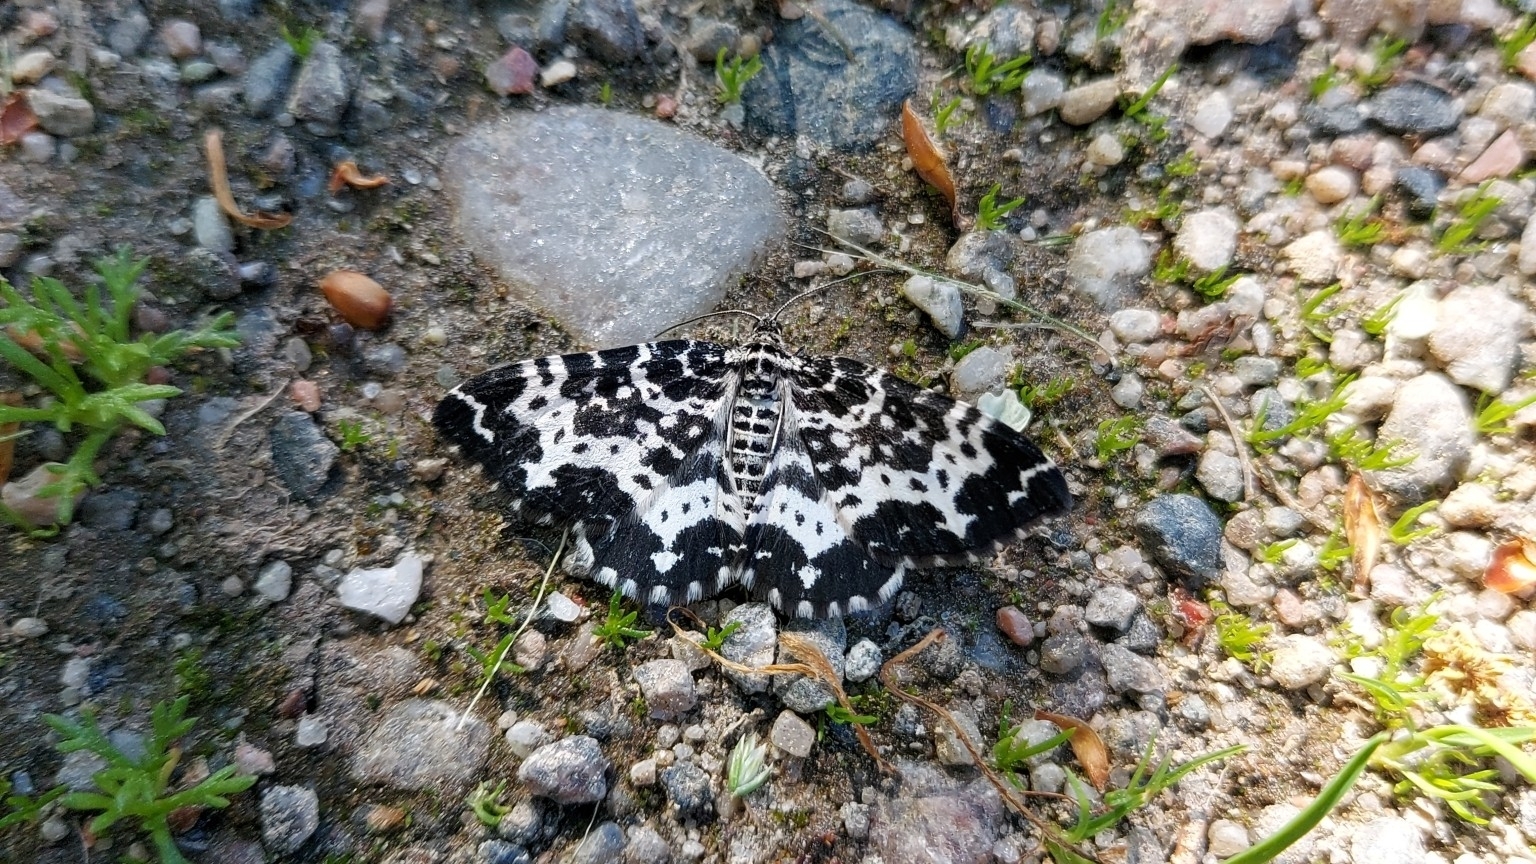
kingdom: Animalia
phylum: Arthropoda
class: Insecta
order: Lepidoptera
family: Geometridae
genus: Rheumaptera
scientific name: Rheumaptera hastata
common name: Argent & sable
